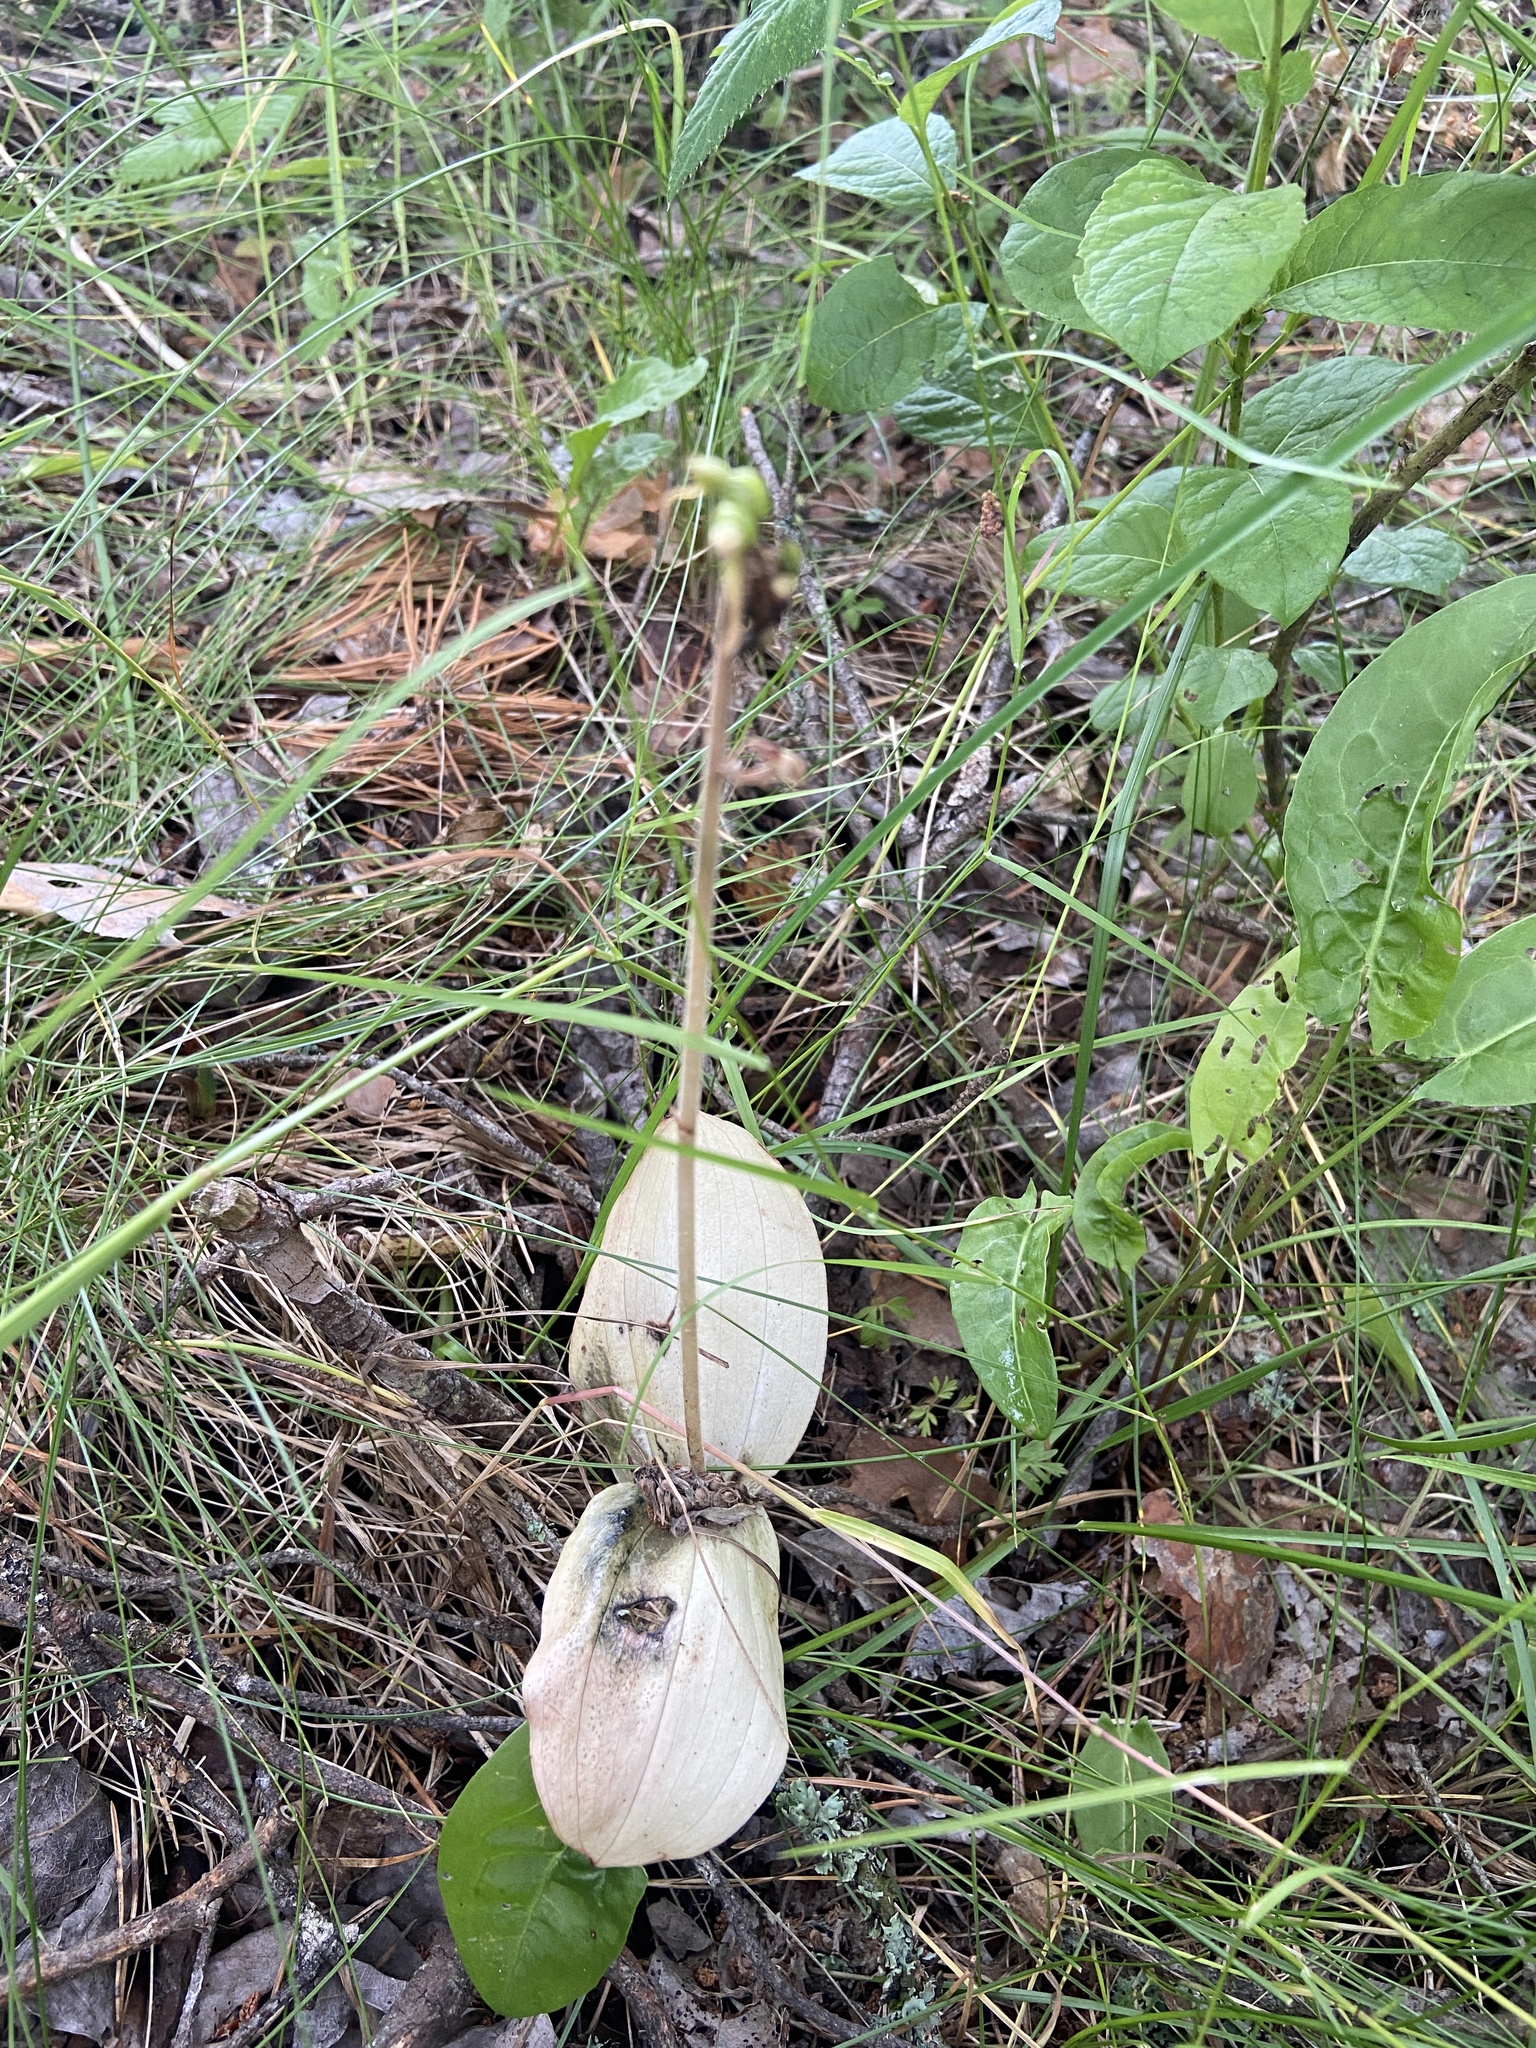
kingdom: Plantae
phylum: Tracheophyta
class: Liliopsida
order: Asparagales
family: Orchidaceae
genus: Neottia
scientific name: Neottia ovata
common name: Common twayblade
